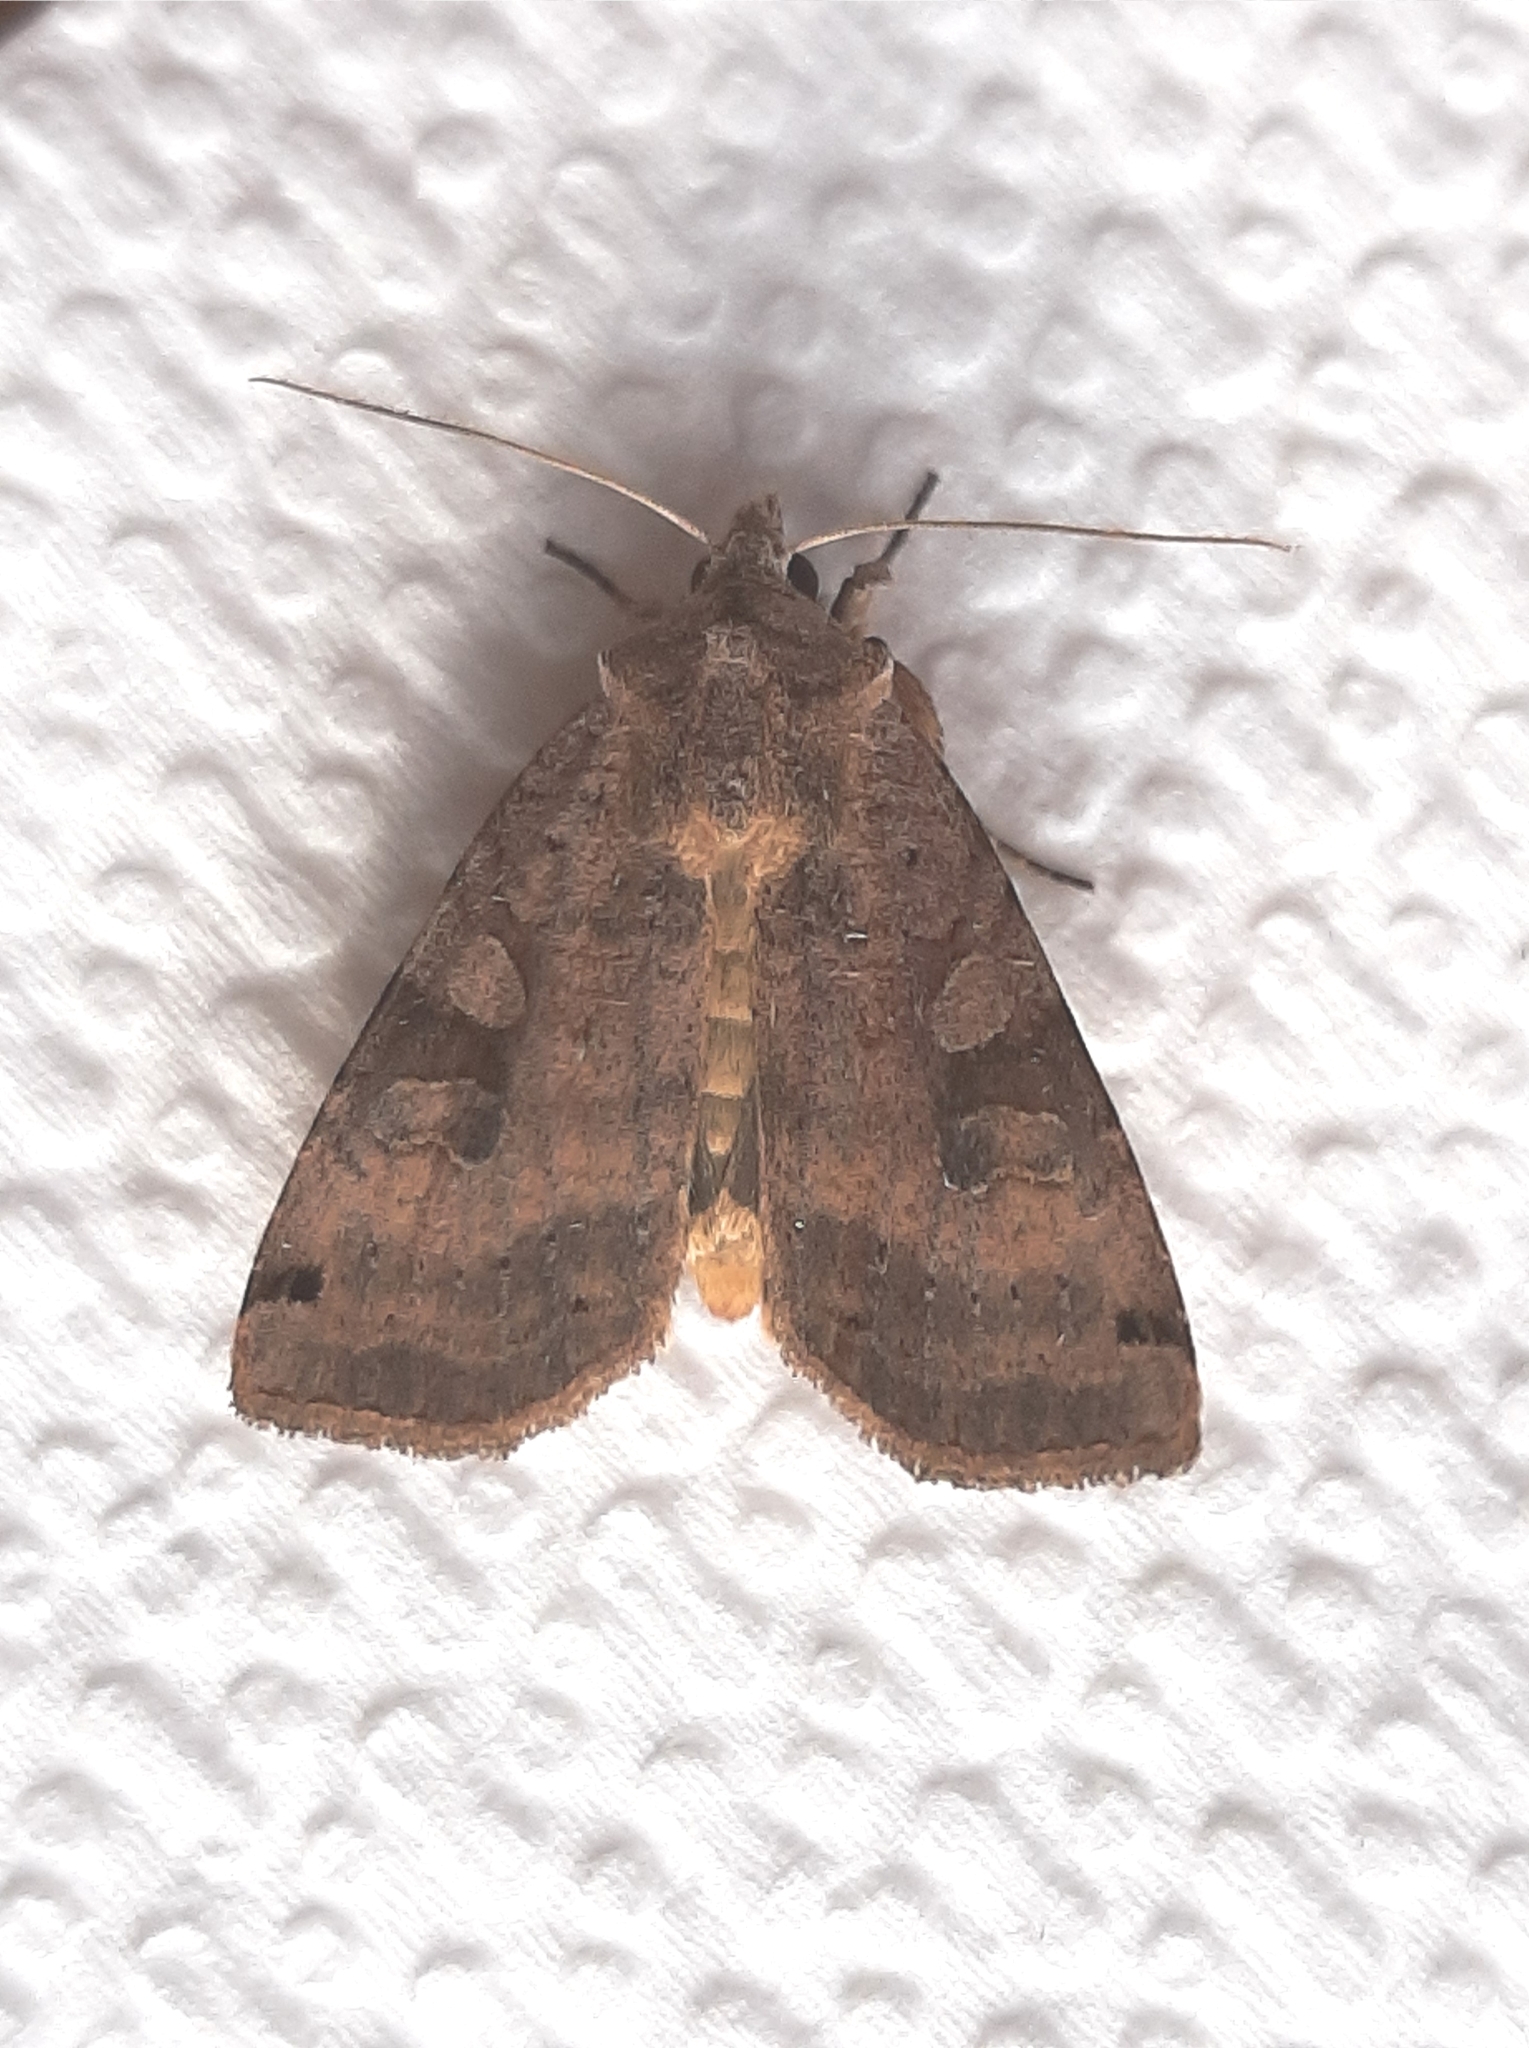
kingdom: Animalia
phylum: Arthropoda
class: Insecta
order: Lepidoptera
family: Noctuidae
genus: Xestia
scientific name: Xestia smithii
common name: Smith's dart
